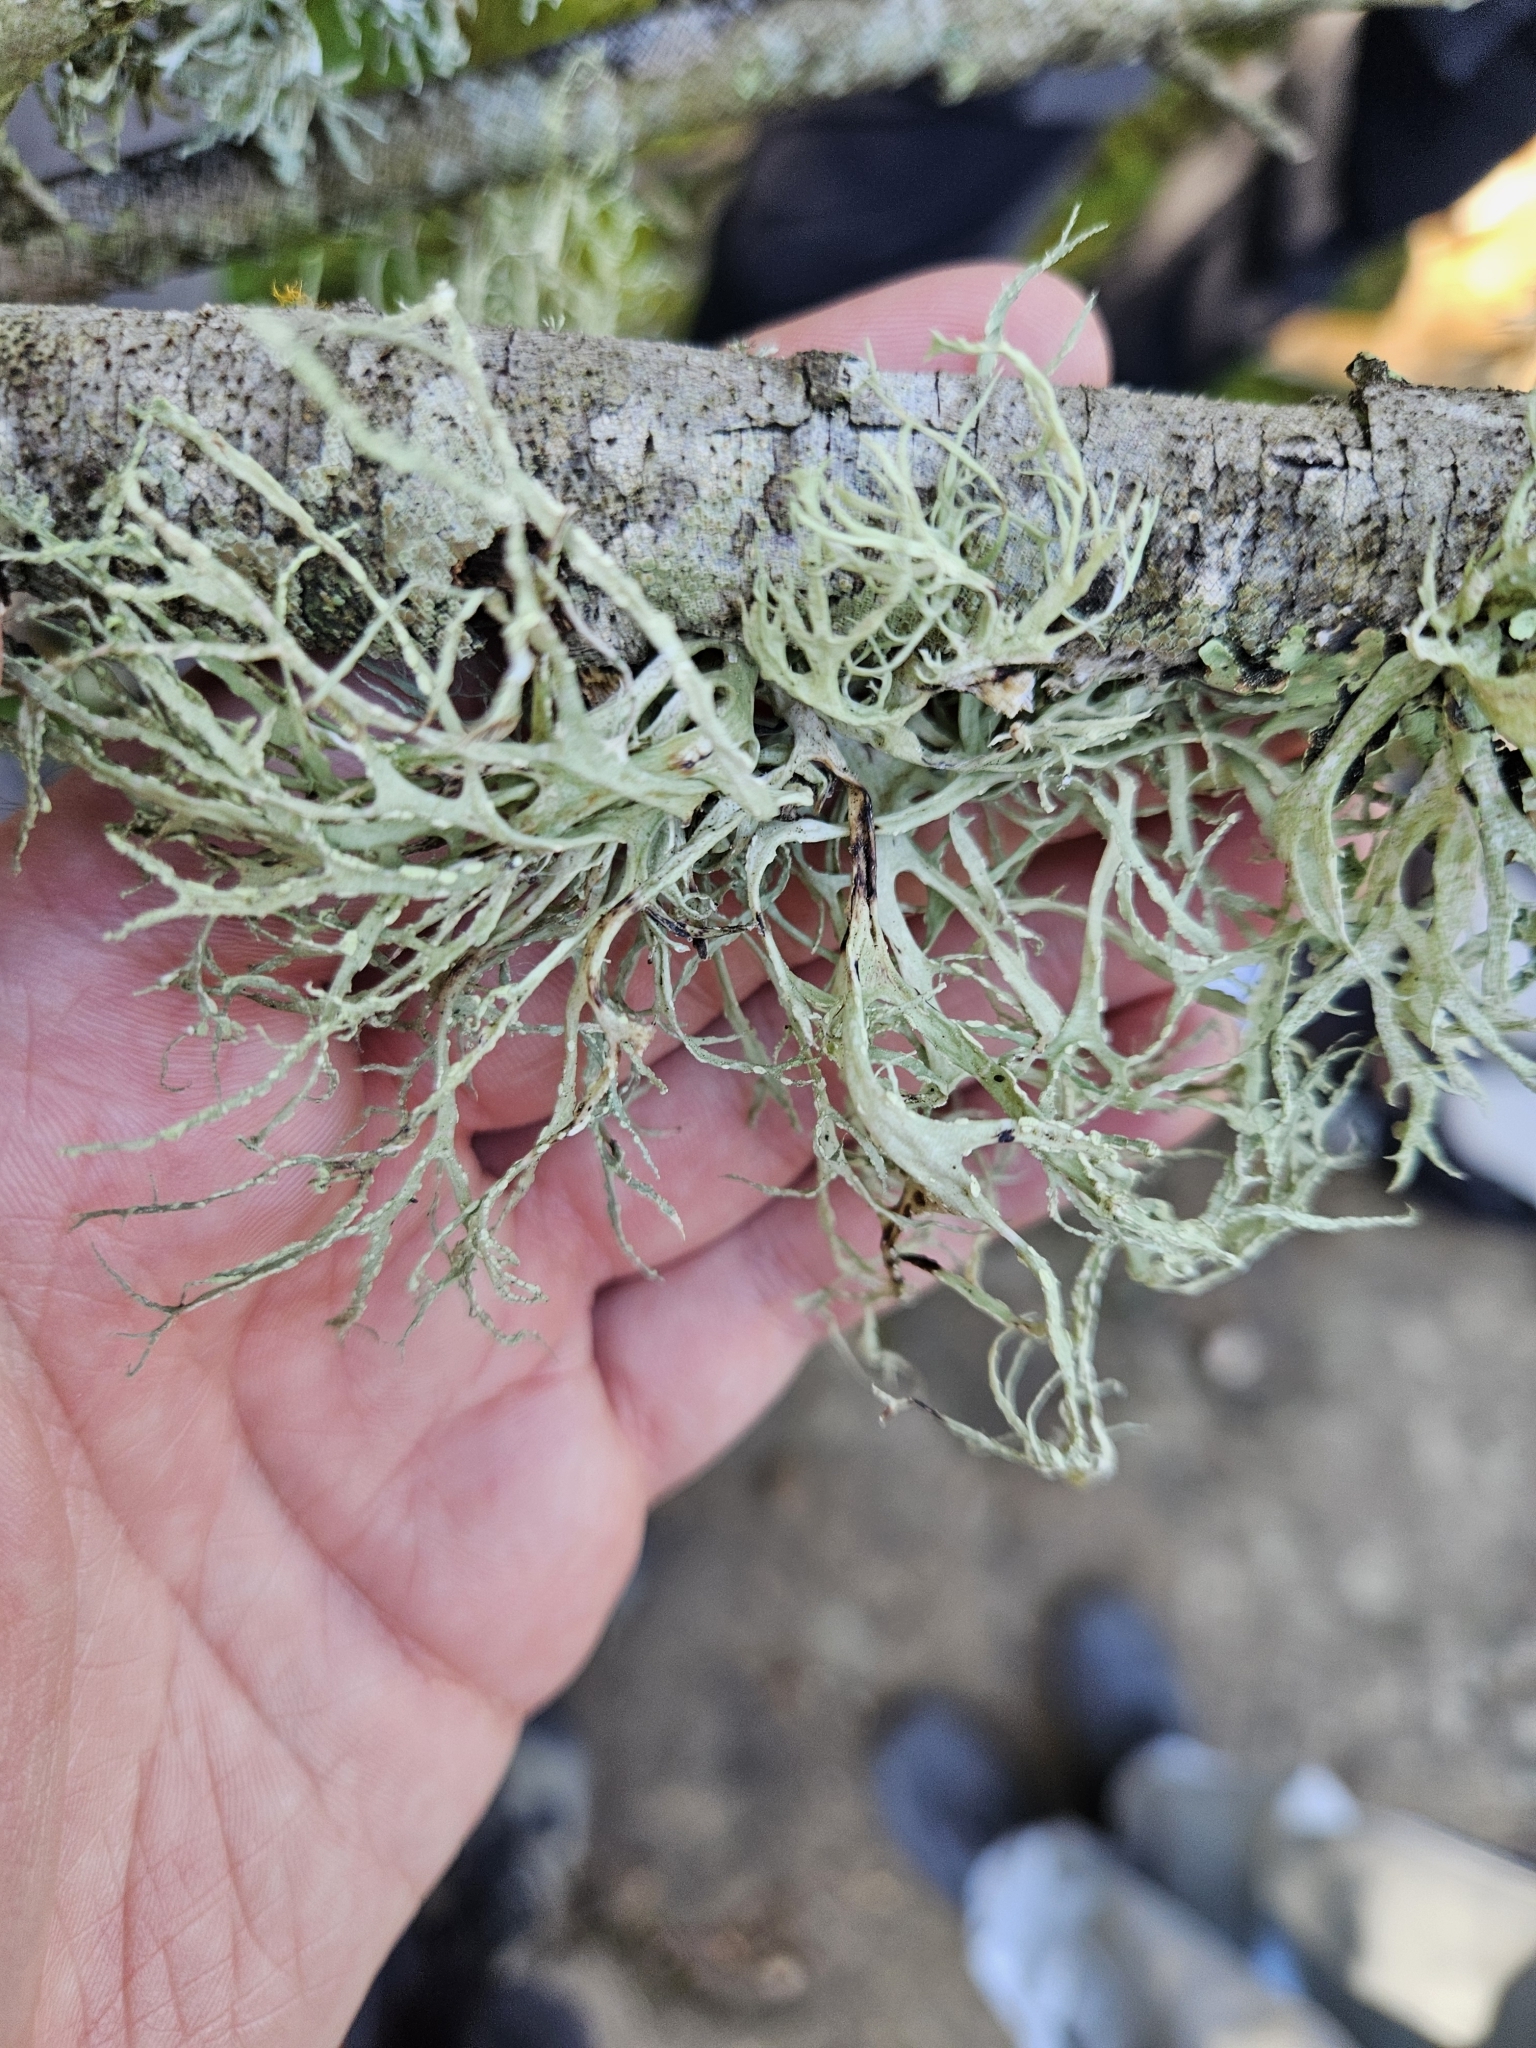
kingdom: Fungi
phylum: Ascomycota
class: Lecanoromycetes
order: Lecanorales
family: Ramalinaceae
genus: Ramalina
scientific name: Ramalina farinacea
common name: Farinose cartilage lichen
